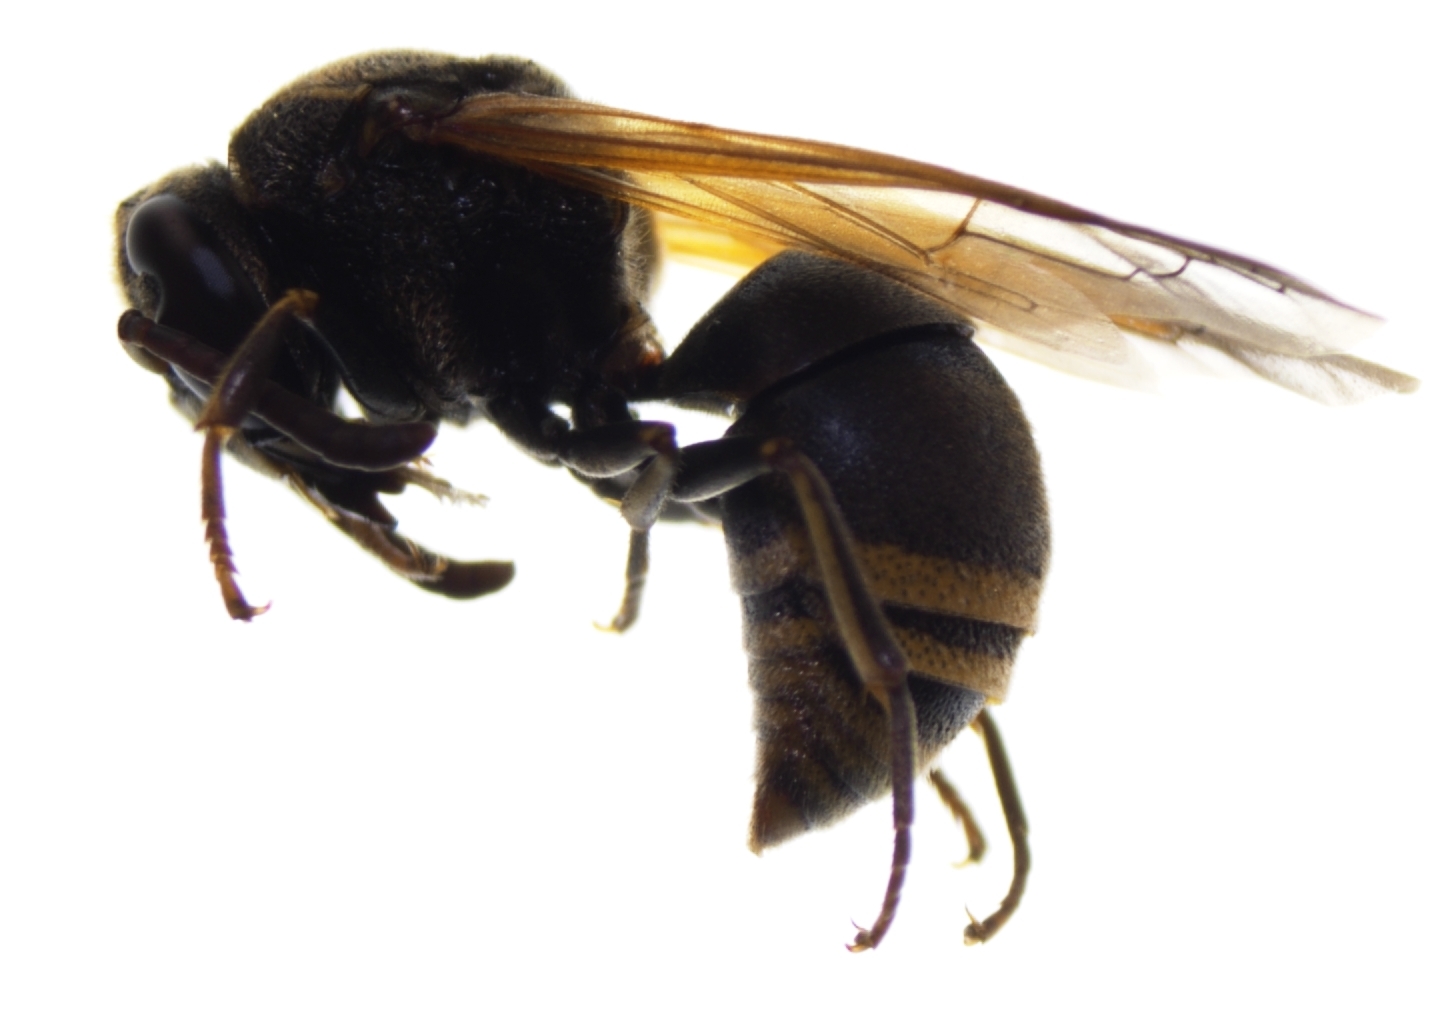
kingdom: Animalia
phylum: Arthropoda
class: Insecta
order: Hymenoptera
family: Eumenidae
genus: Pachodynerus
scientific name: Pachodynerus nasidens
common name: Key hole wasp
